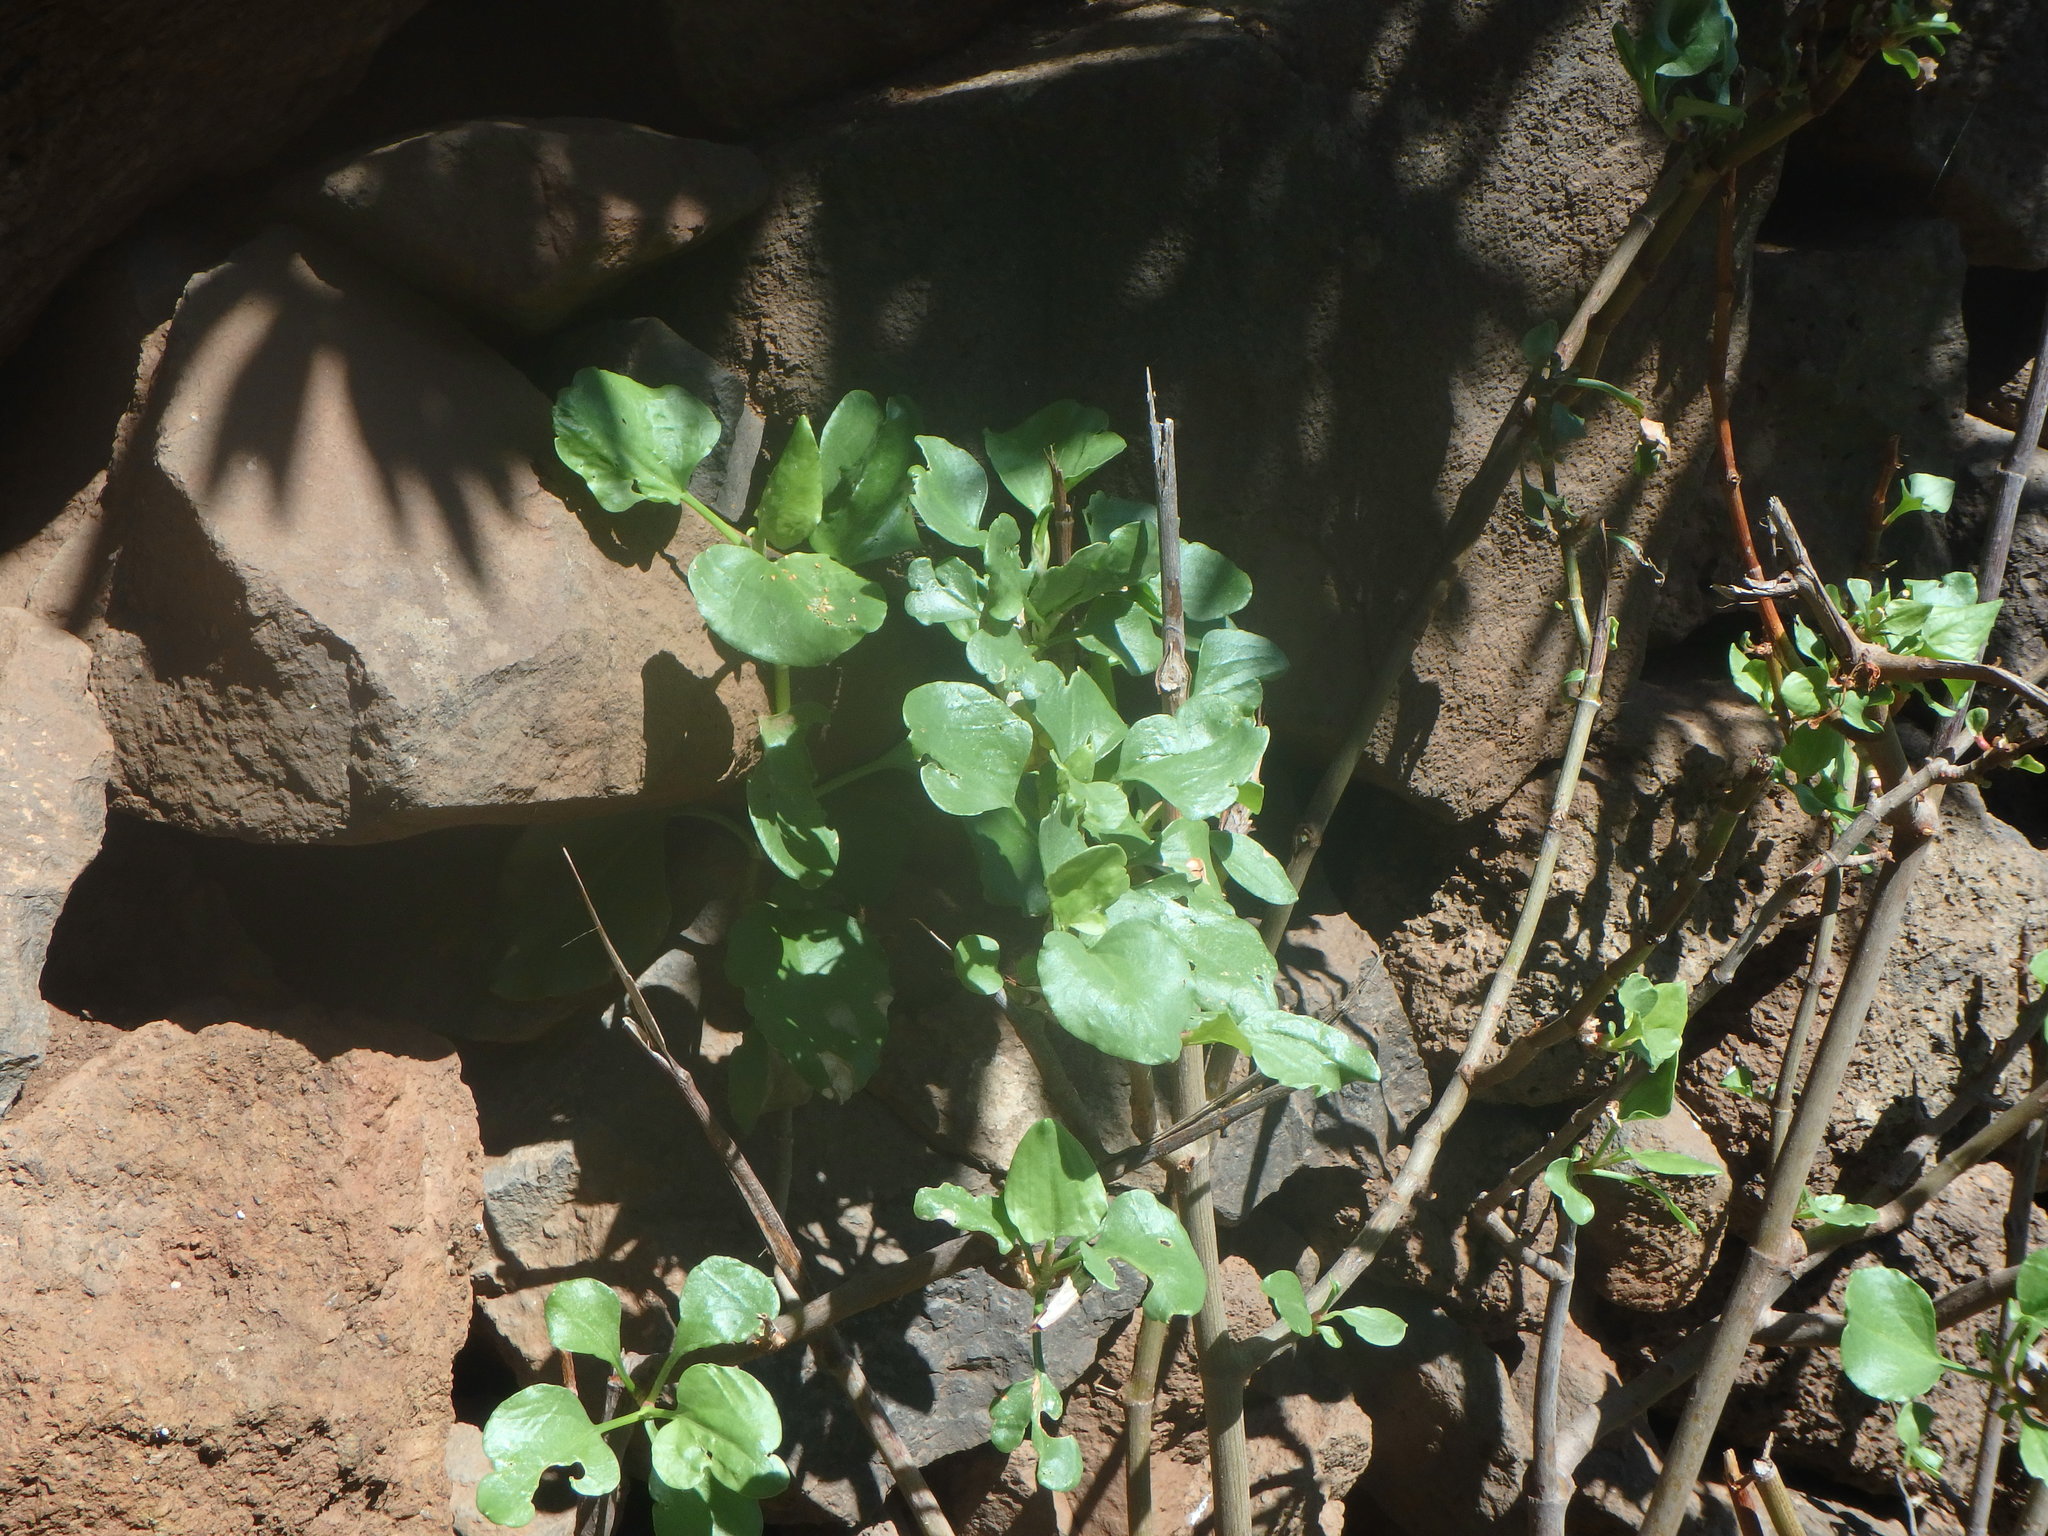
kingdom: Plantae
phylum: Tracheophyta
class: Magnoliopsida
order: Caryophyllales
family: Polygonaceae
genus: Rumex
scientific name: Rumex lunaria
